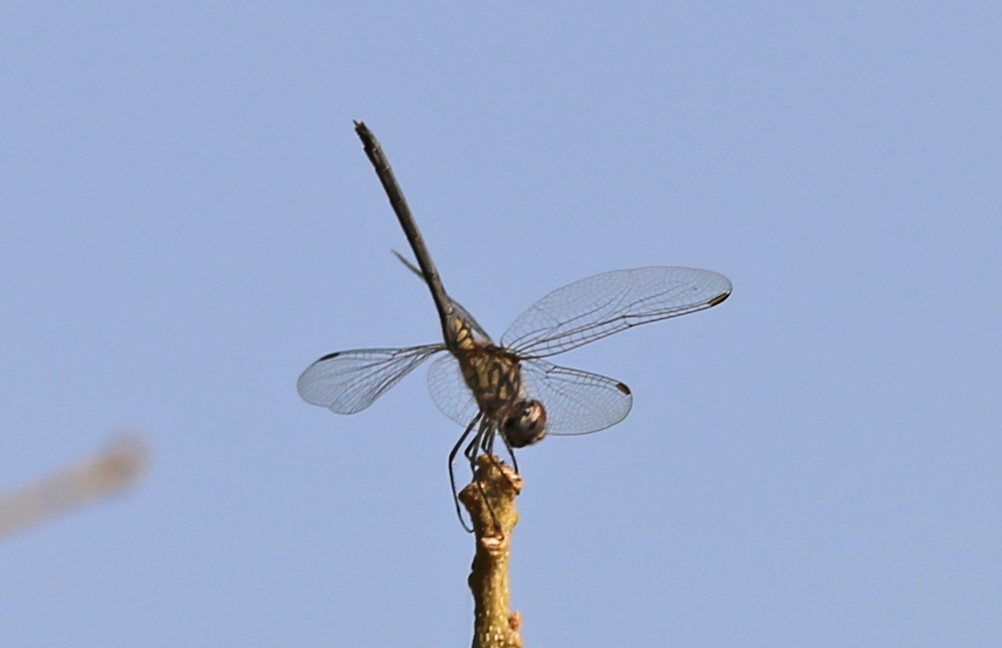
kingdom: Animalia
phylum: Arthropoda
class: Insecta
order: Odonata
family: Libellulidae
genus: Trithemis
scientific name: Trithemis hecate
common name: Silhouette dropwing
